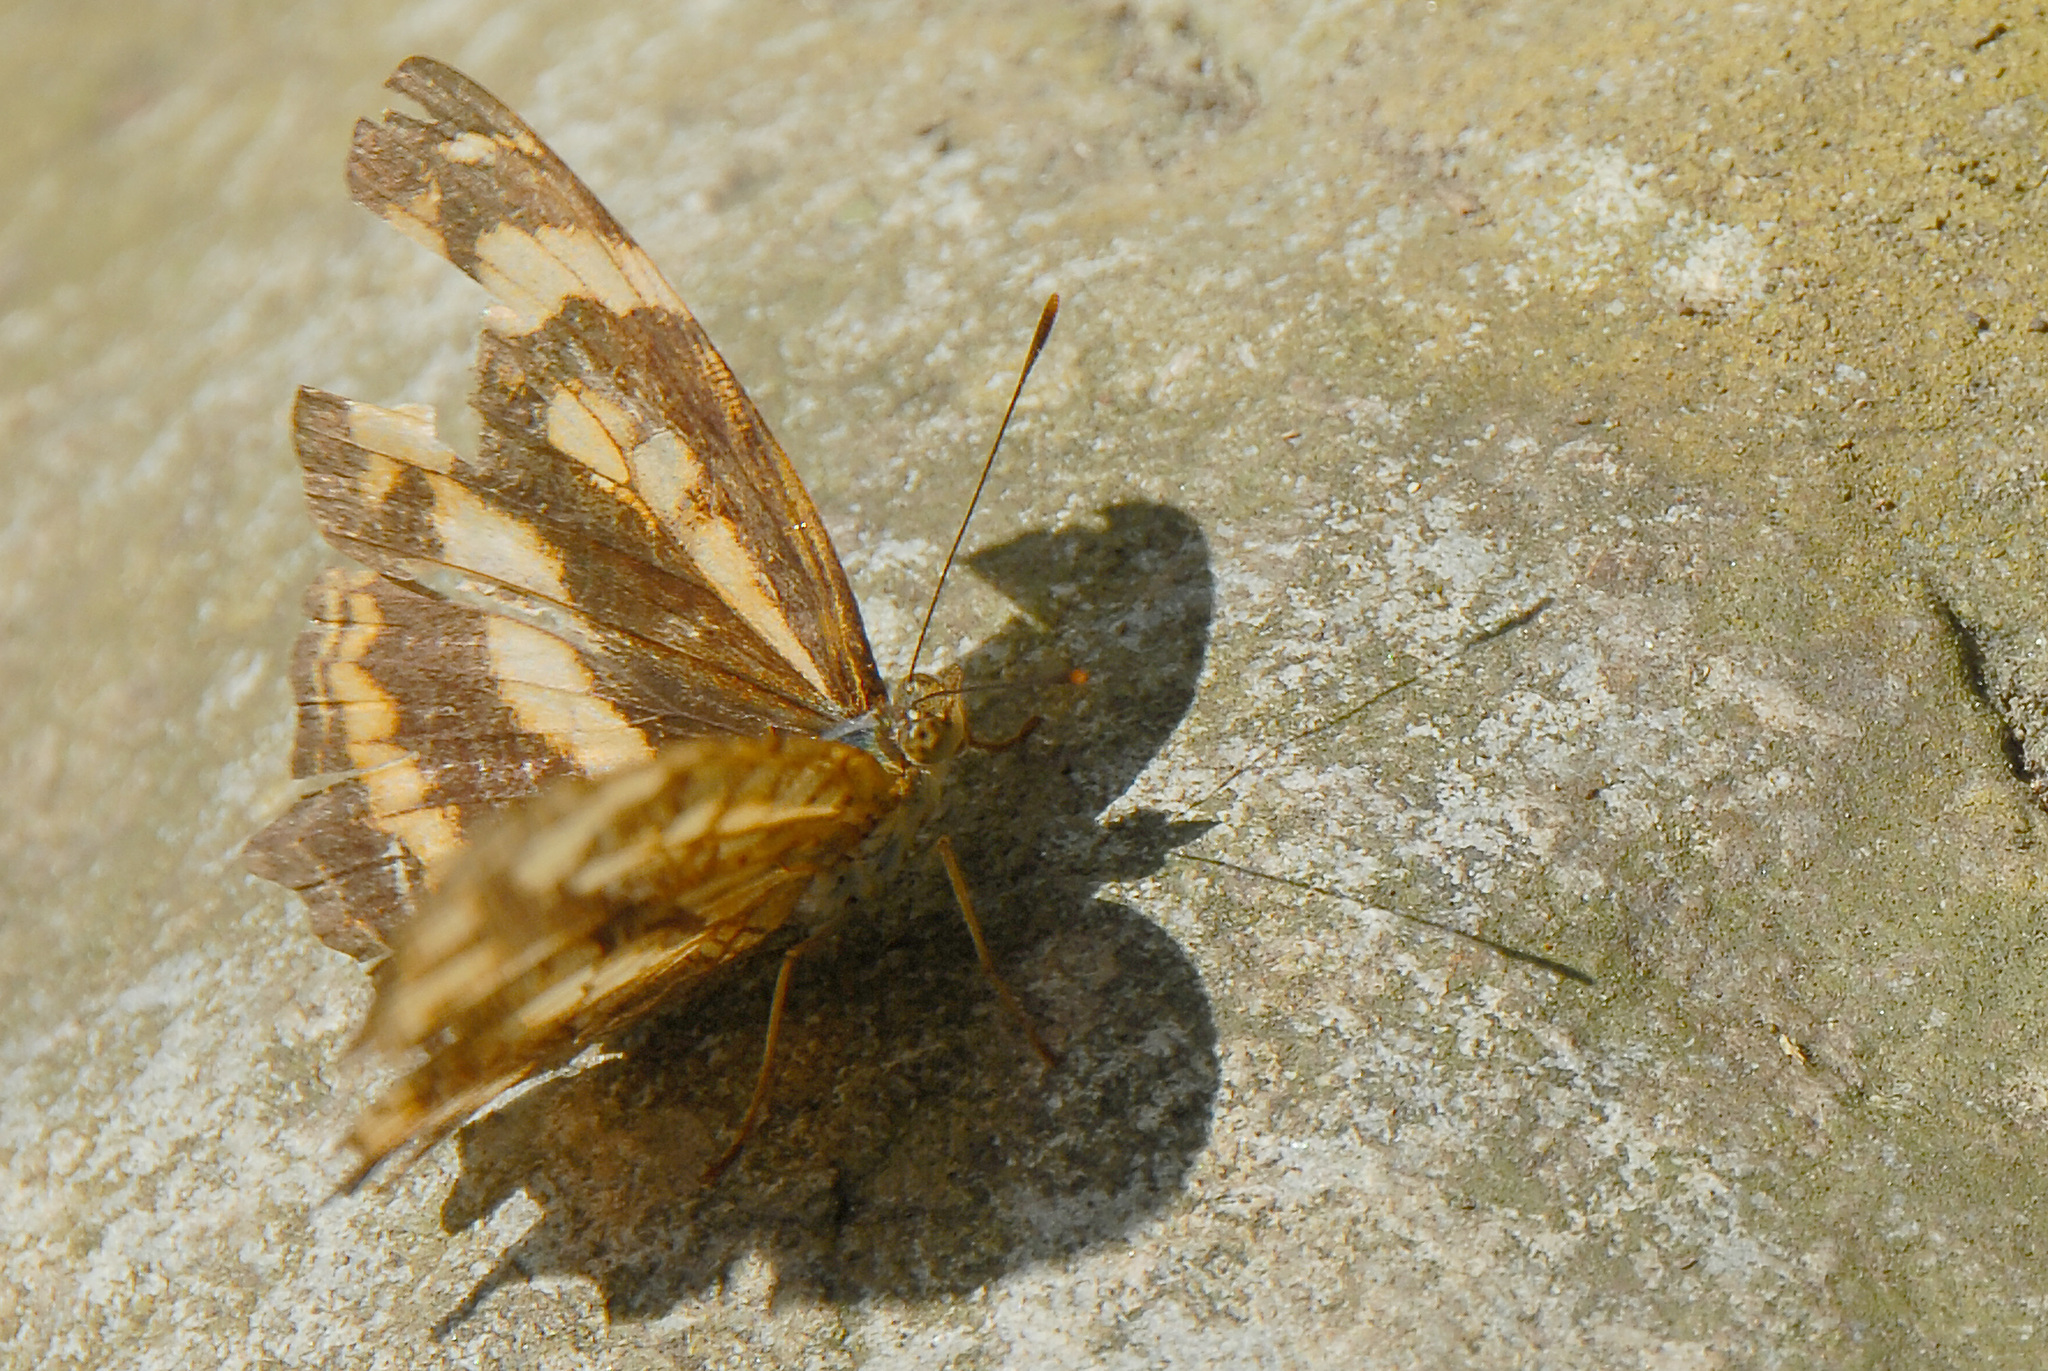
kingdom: Animalia
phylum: Arthropoda
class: Insecta
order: Lepidoptera
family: Nymphalidae
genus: Symbrenthia
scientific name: Symbrenthia hypselis
